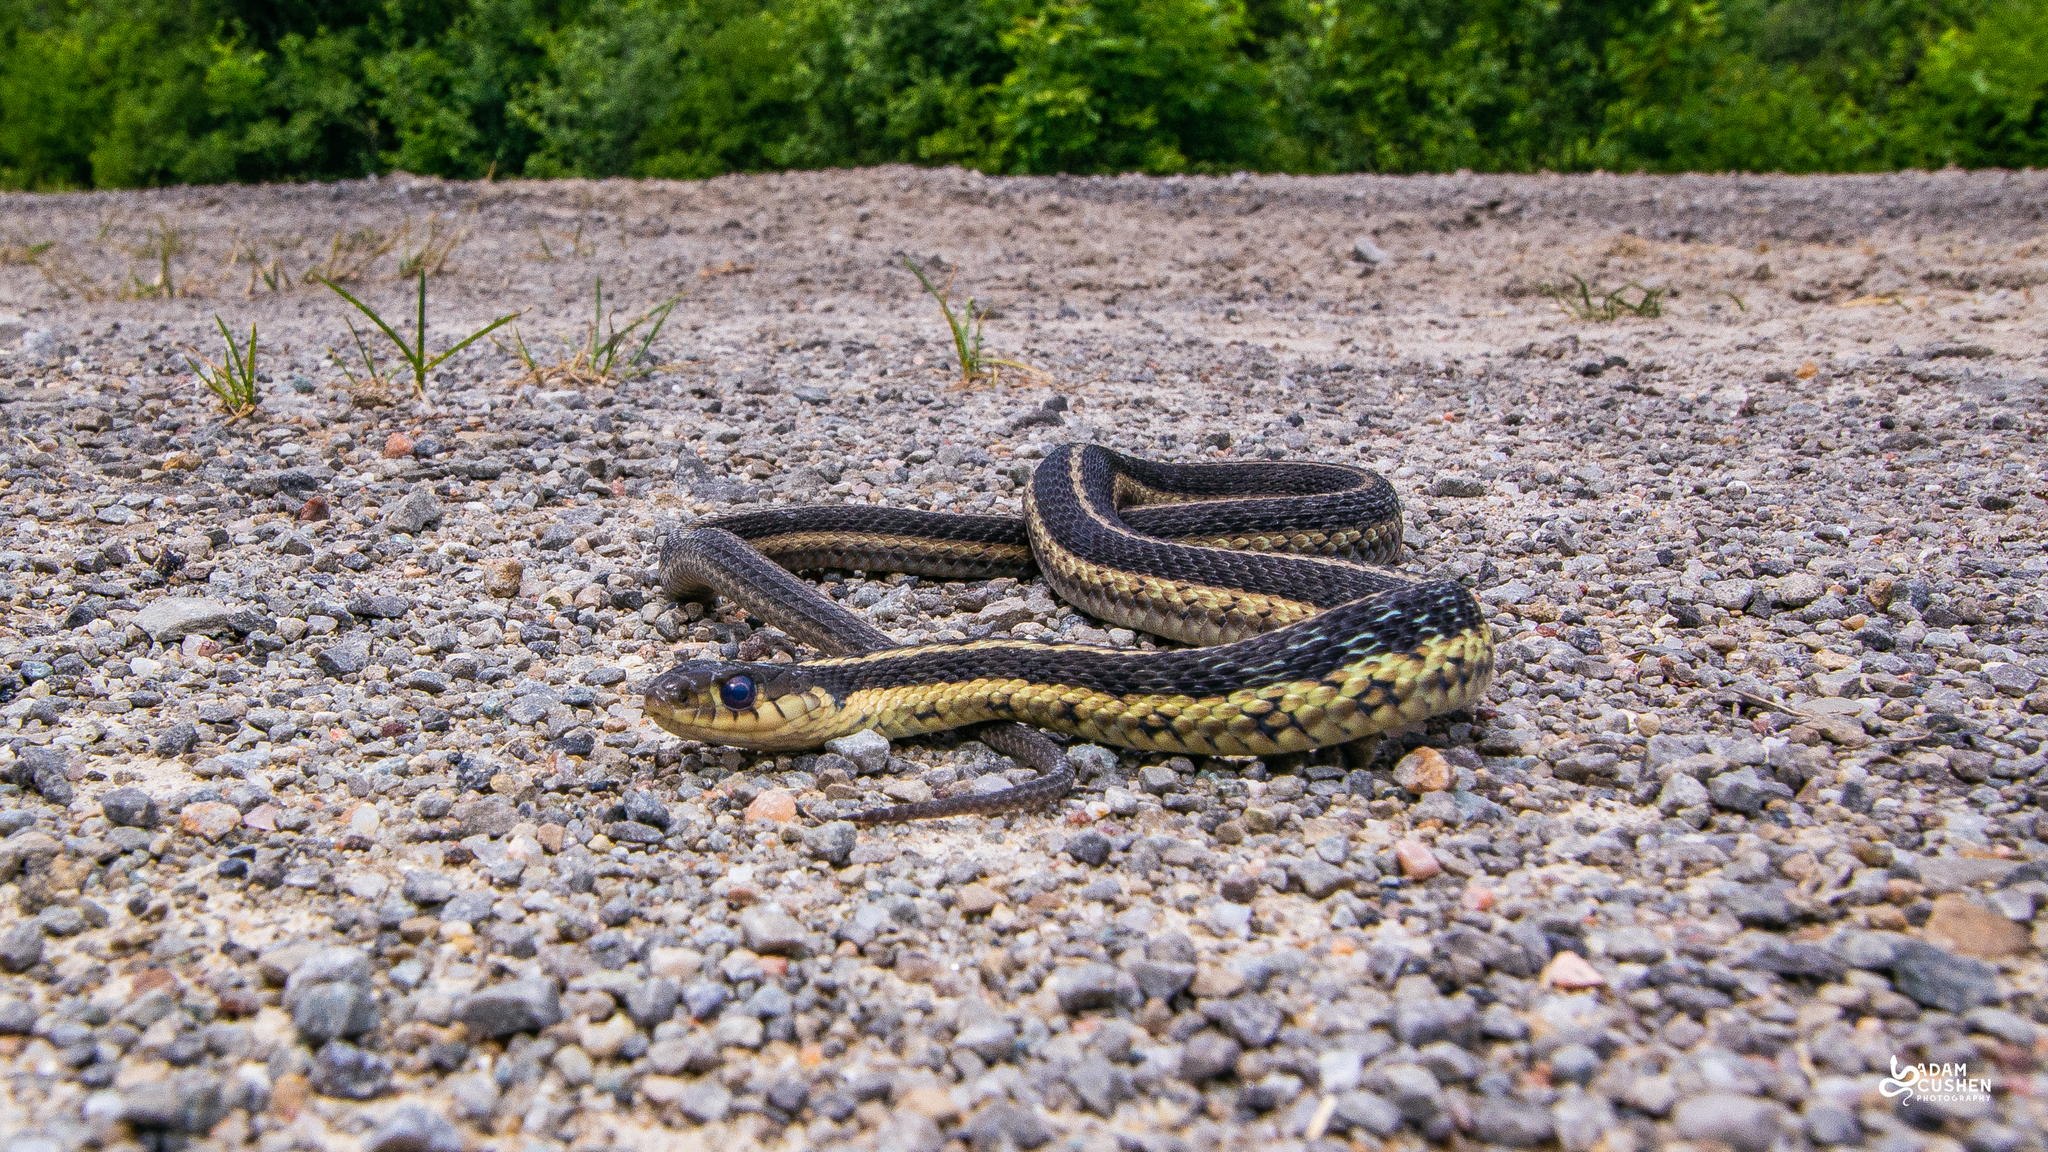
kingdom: Animalia
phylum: Chordata
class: Squamata
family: Colubridae
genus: Thamnophis
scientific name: Thamnophis sirtalis
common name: Common garter snake
